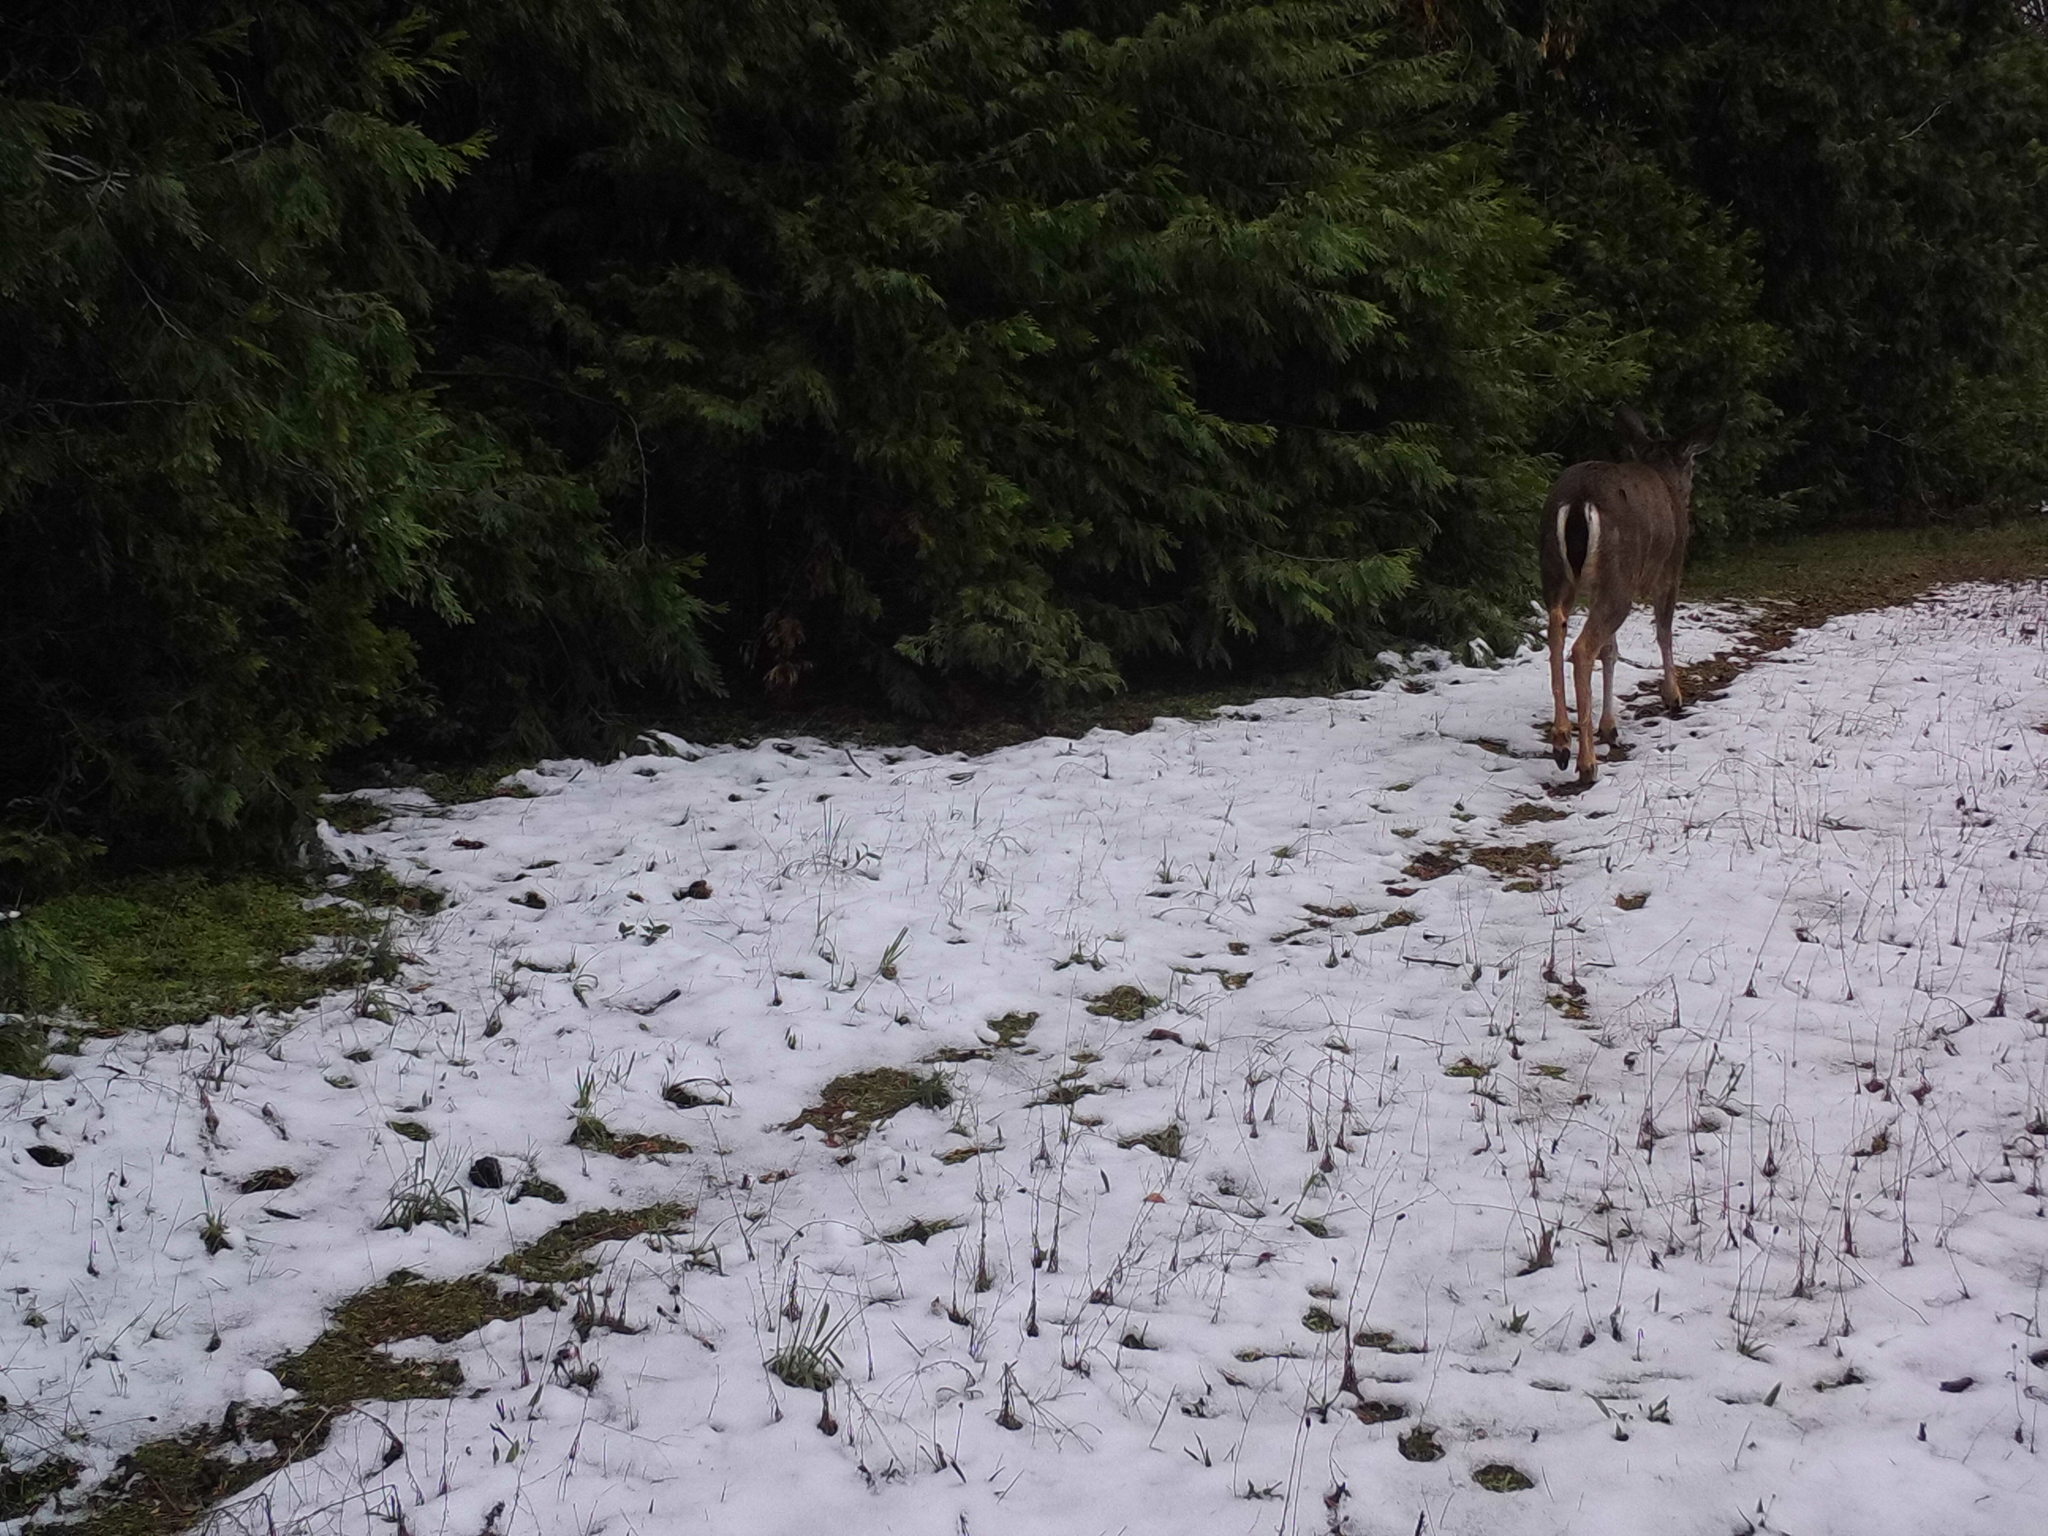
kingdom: Animalia
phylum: Chordata
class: Mammalia
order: Artiodactyla
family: Cervidae
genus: Odocoileus
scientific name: Odocoileus hemionus
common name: Mule deer
